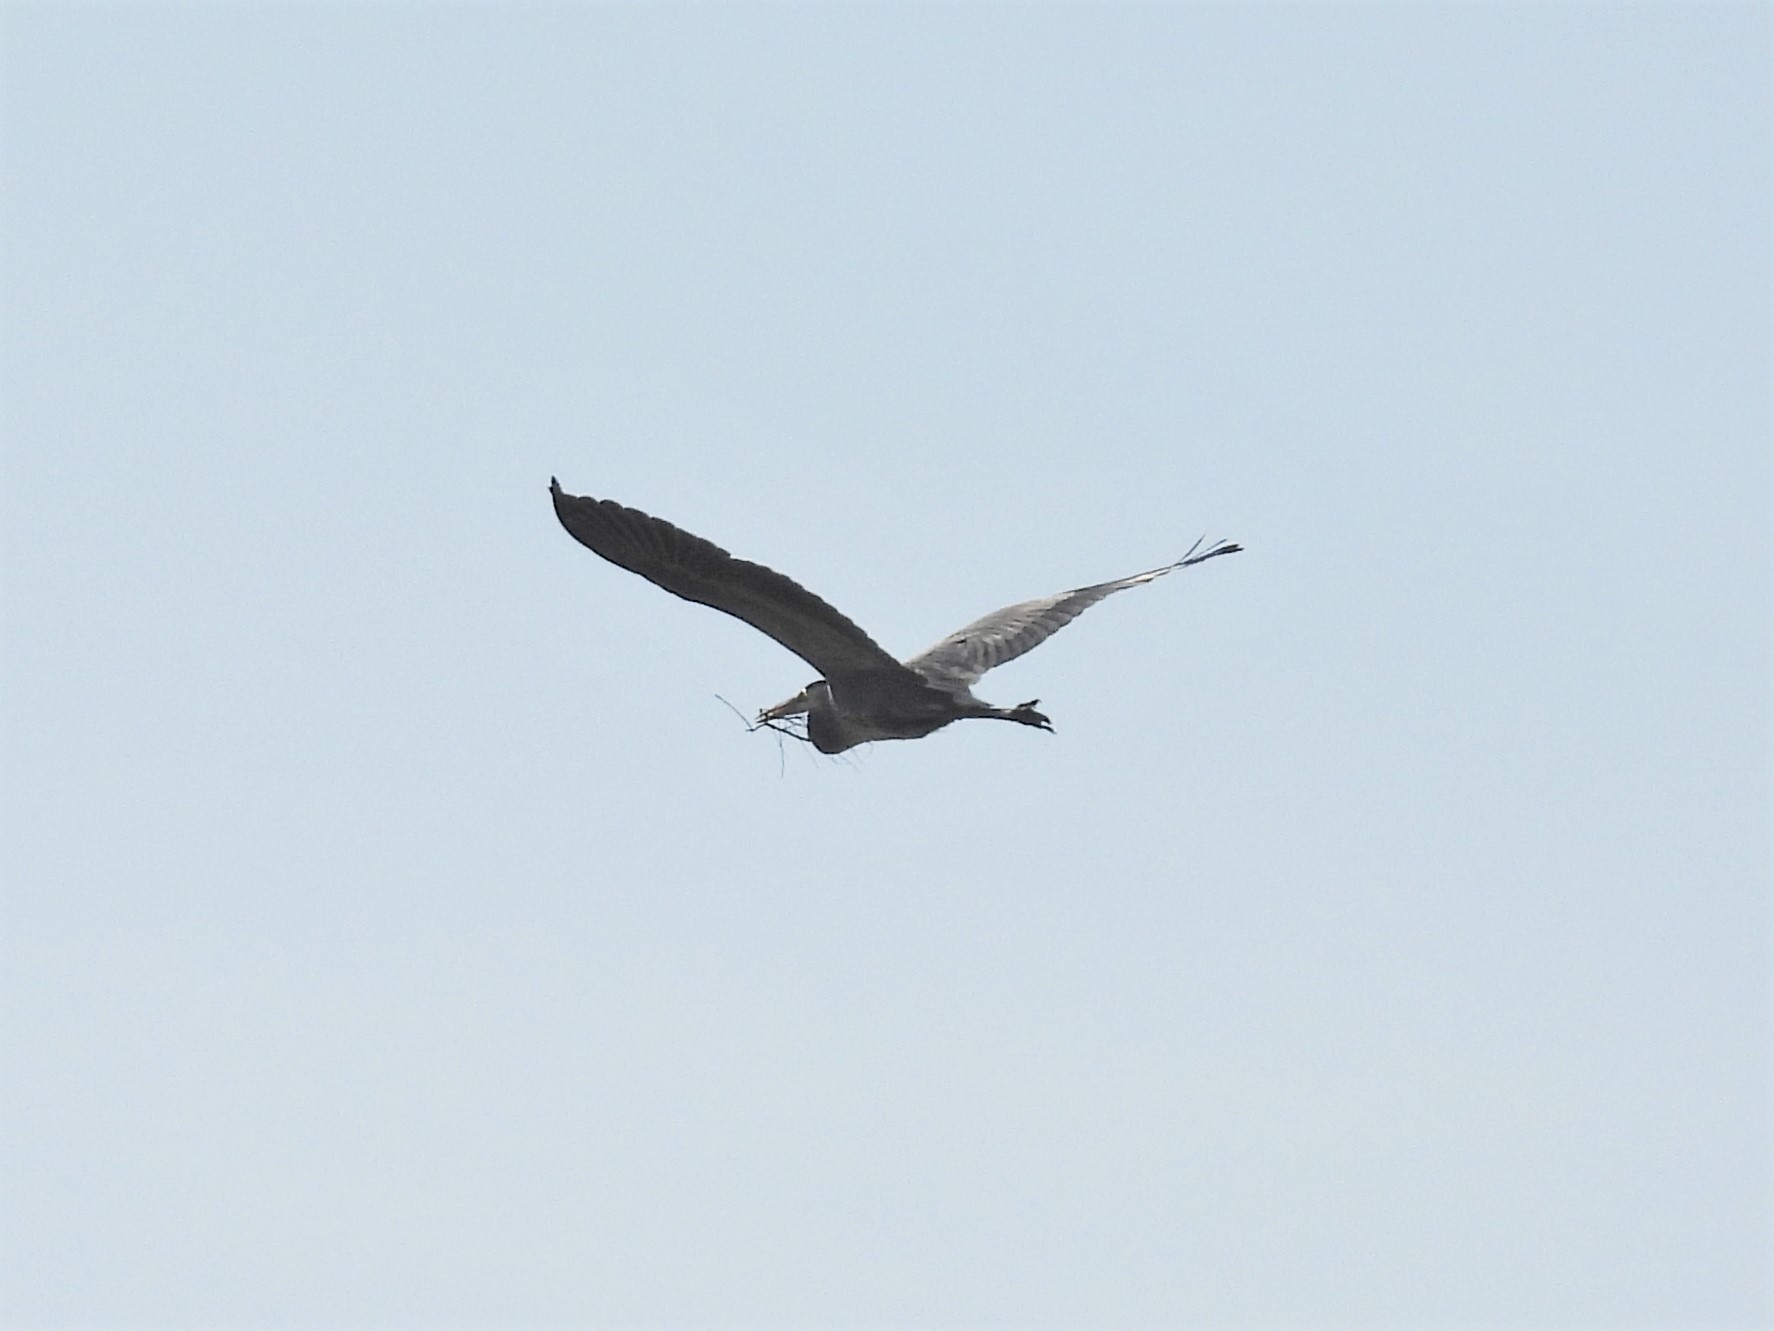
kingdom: Animalia
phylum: Chordata
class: Aves
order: Pelecaniformes
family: Ardeidae
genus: Ardea
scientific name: Ardea herodias
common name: Great blue heron
